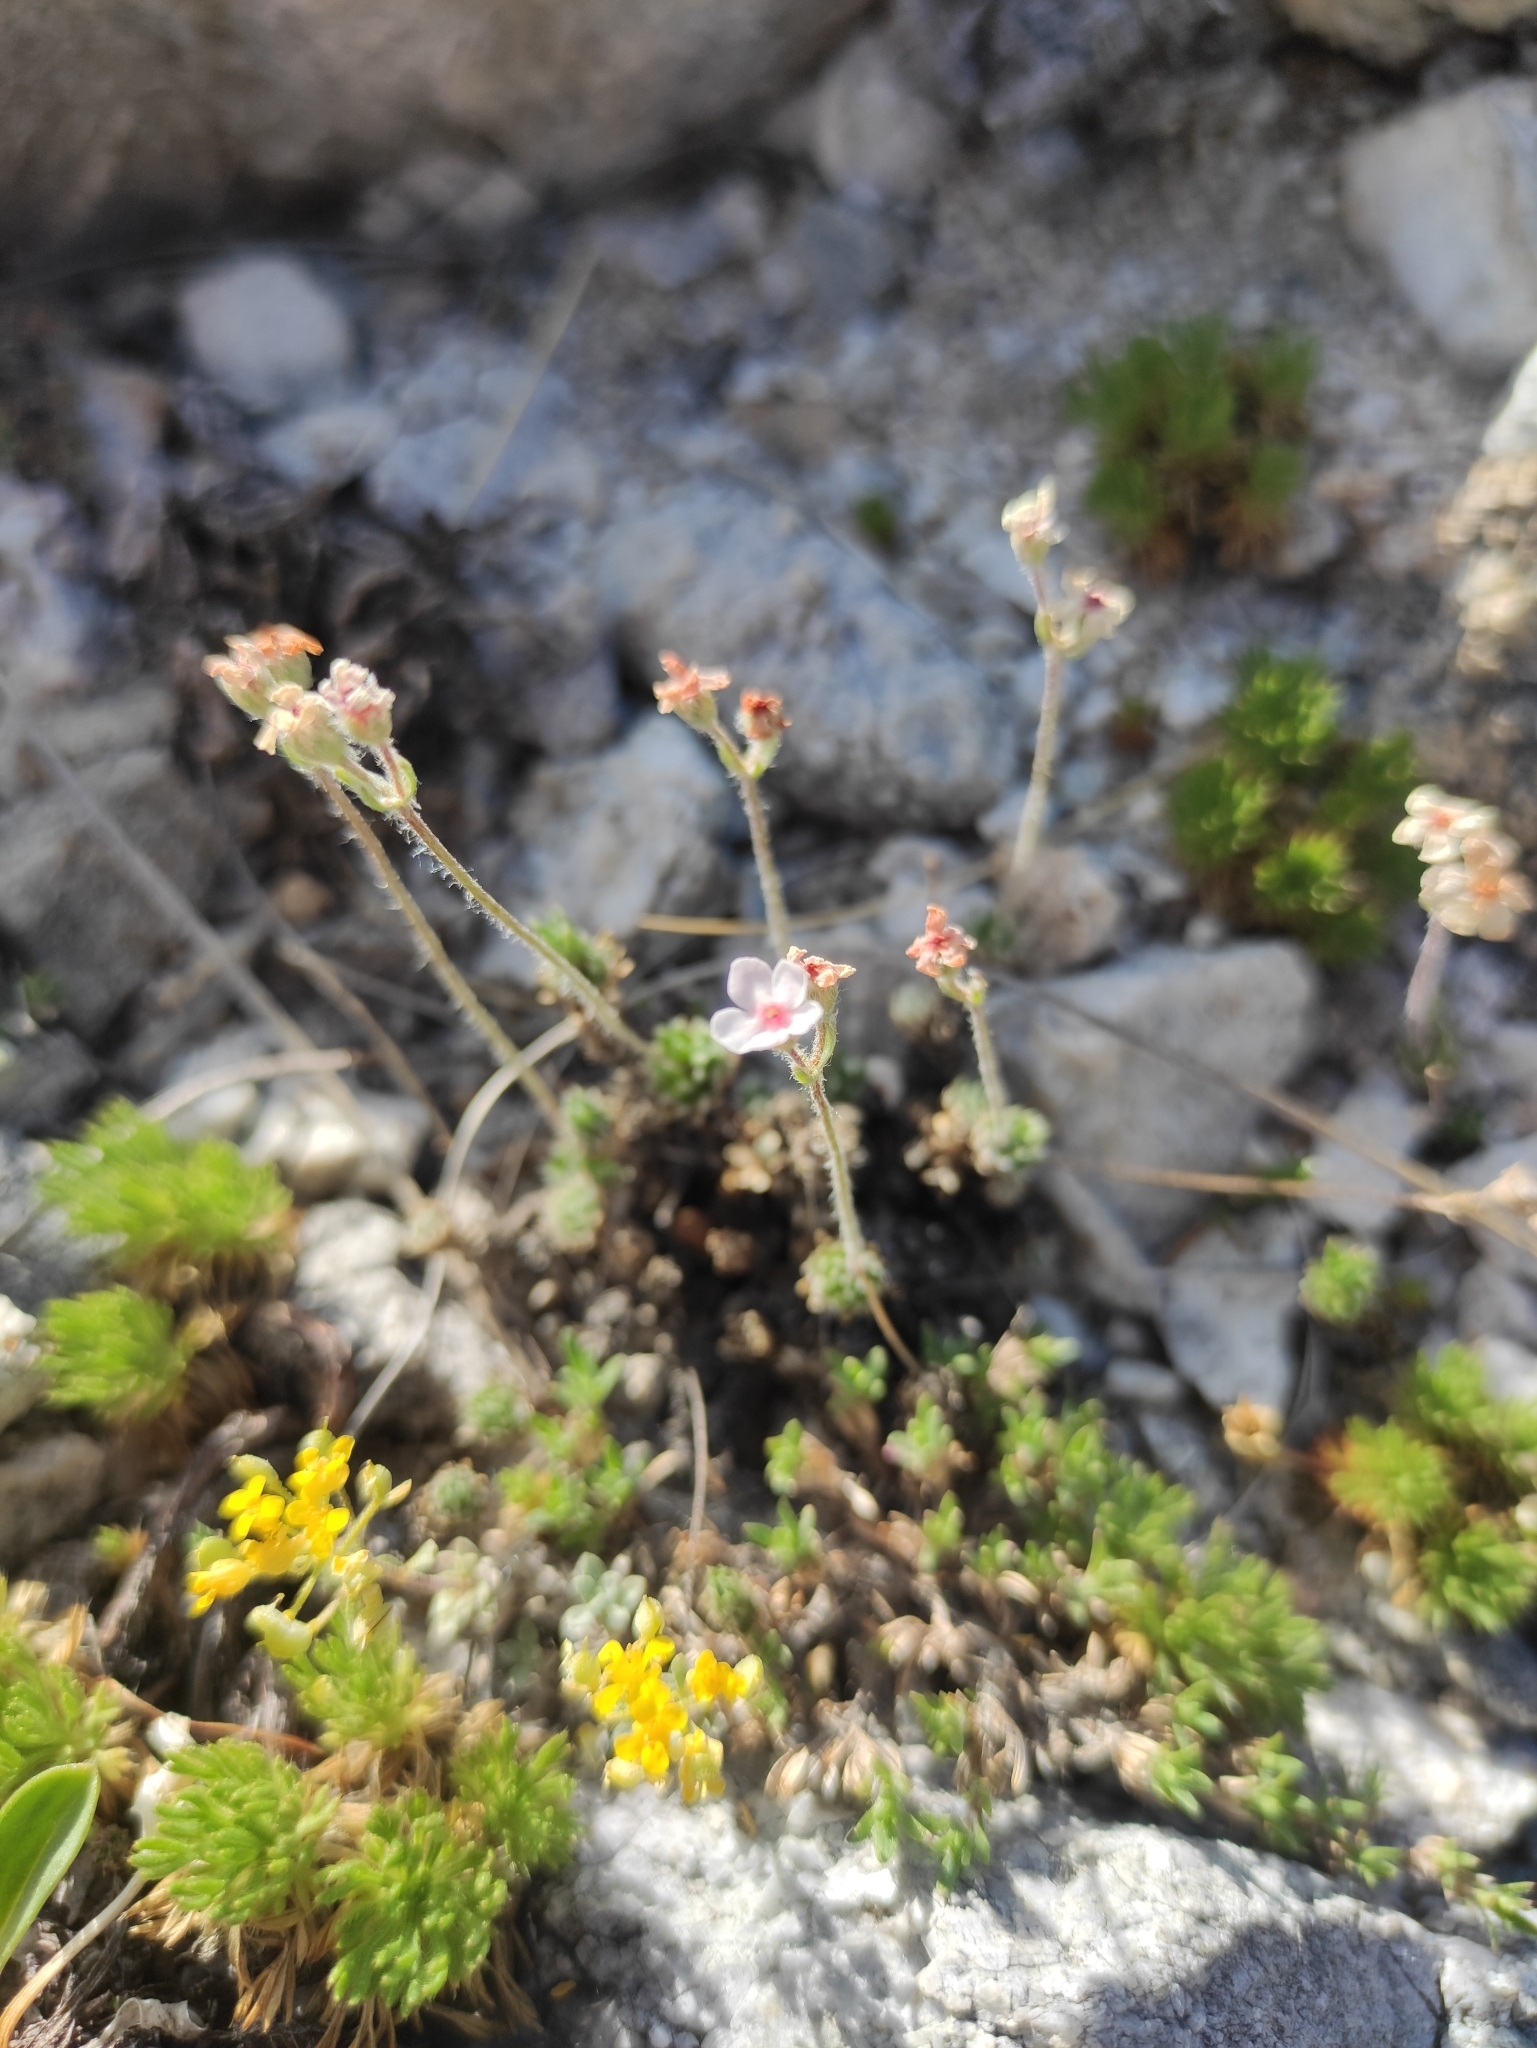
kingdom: Plantae
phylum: Tracheophyta
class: Magnoliopsida
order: Ericales
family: Primulaceae
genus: Androsace
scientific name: Androsace incana
